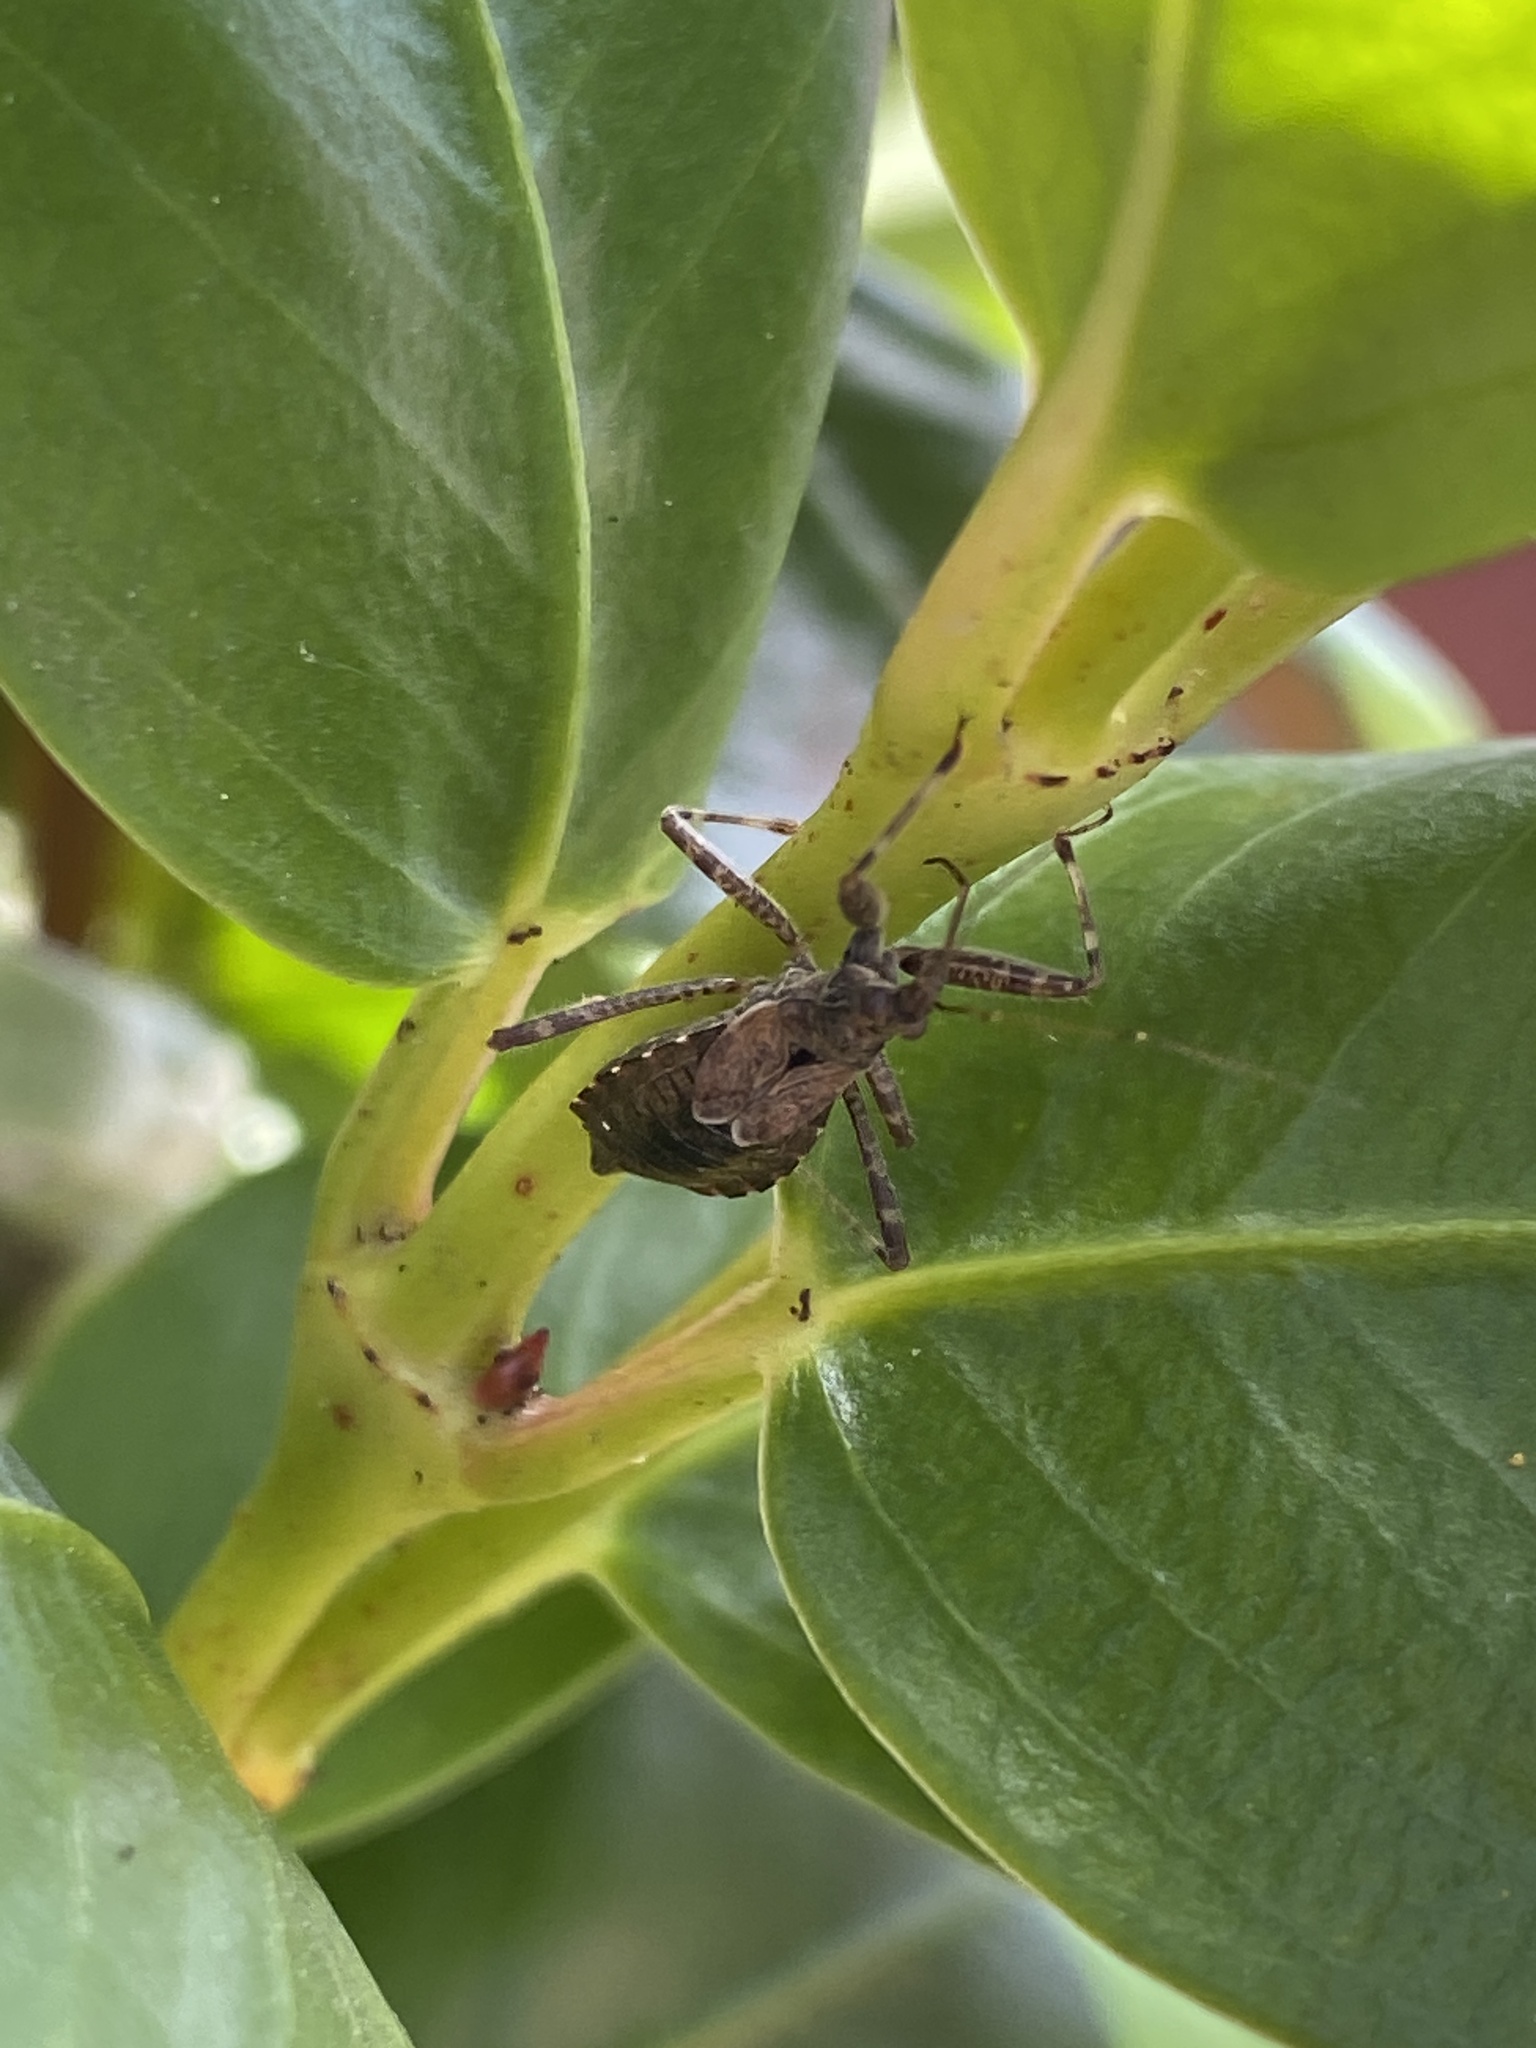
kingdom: Animalia
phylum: Arthropoda
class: Insecta
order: Hemiptera
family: Nabidae
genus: Himacerus
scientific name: Himacerus apterus
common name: Tree damsel bug
